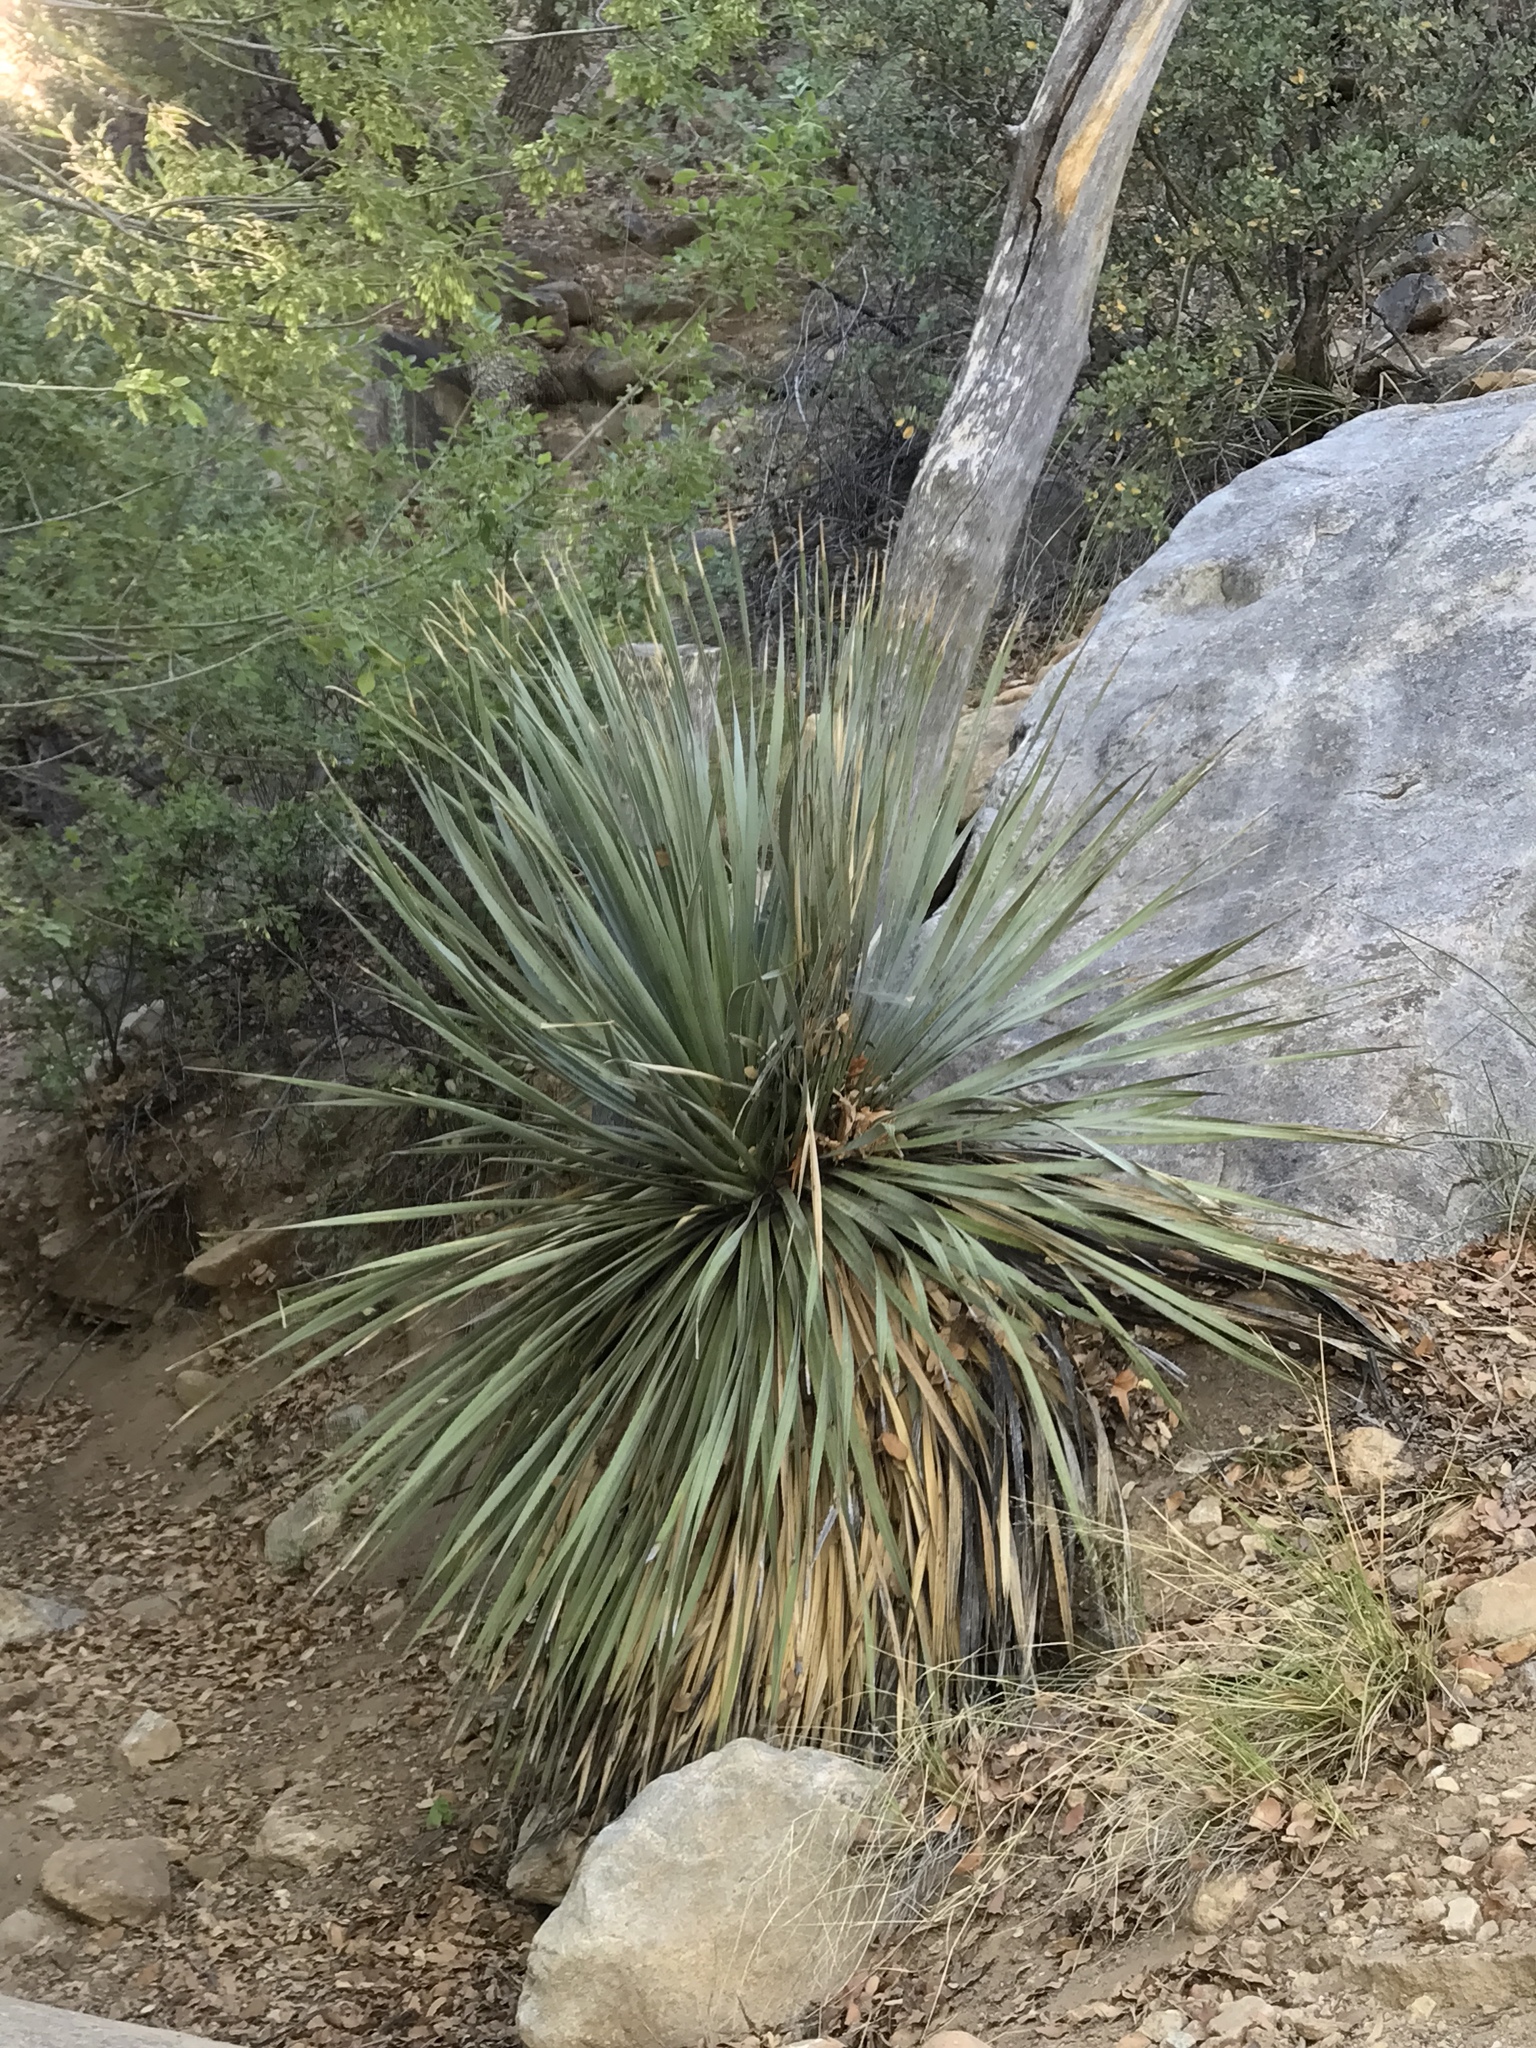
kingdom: Plantae
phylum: Tracheophyta
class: Liliopsida
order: Asparagales
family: Asparagaceae
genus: Dasylirion
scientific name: Dasylirion wheeleri
